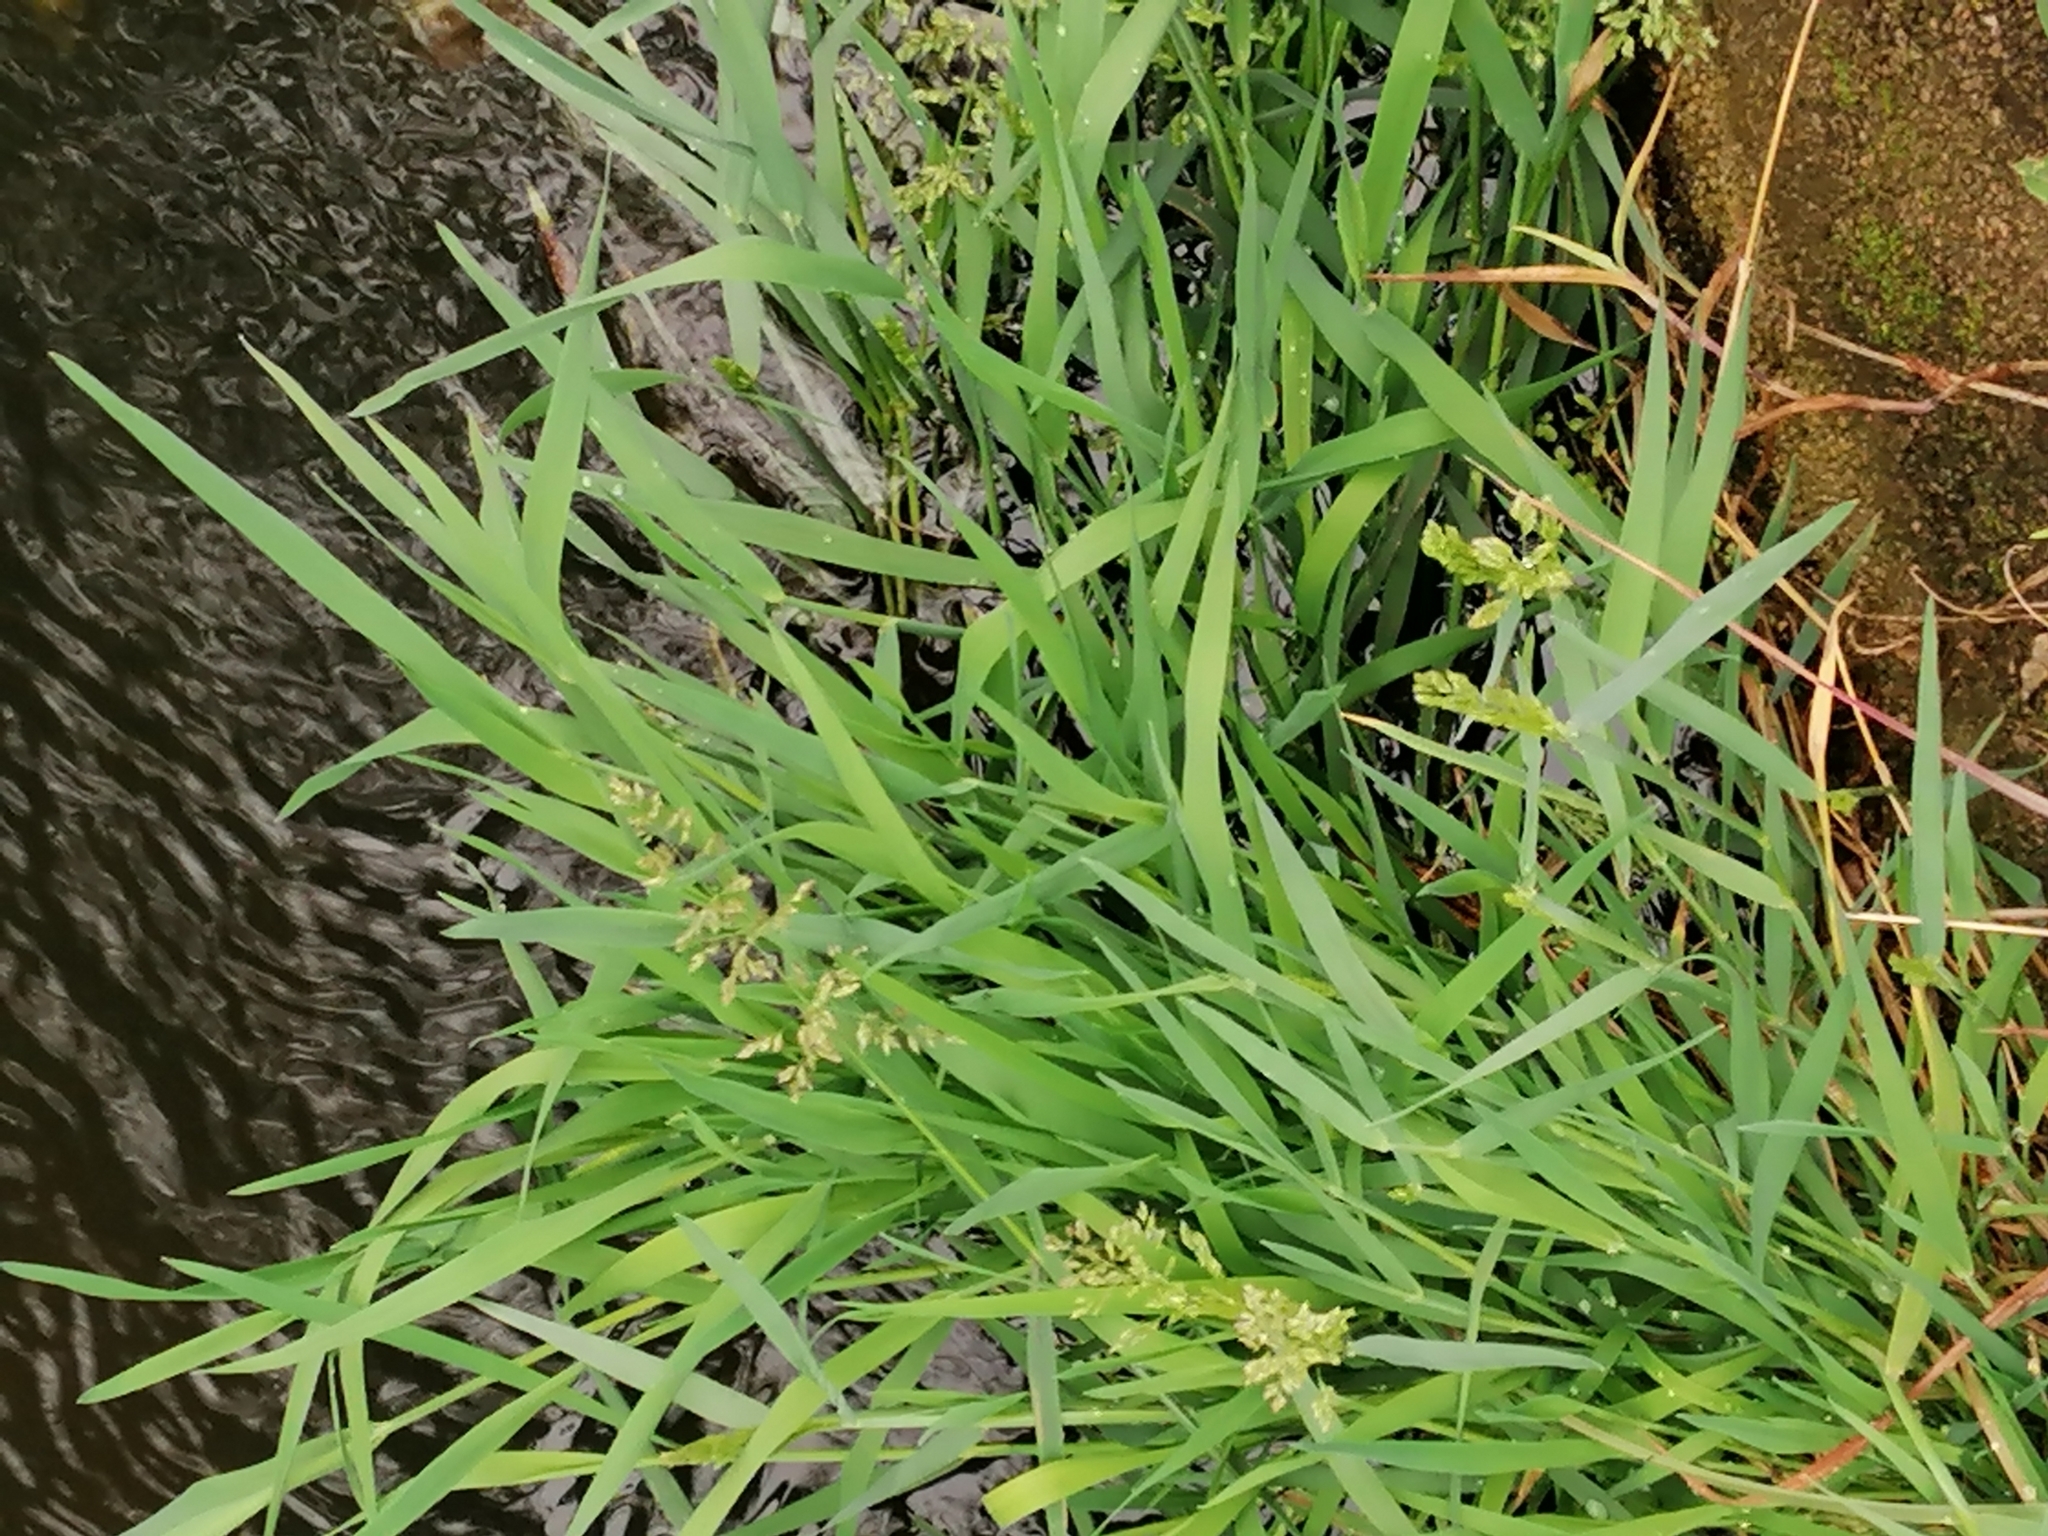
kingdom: Plantae
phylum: Tracheophyta
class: Liliopsida
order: Poales
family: Poaceae
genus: Poa
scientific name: Poa annua
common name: Annual bluegrass
